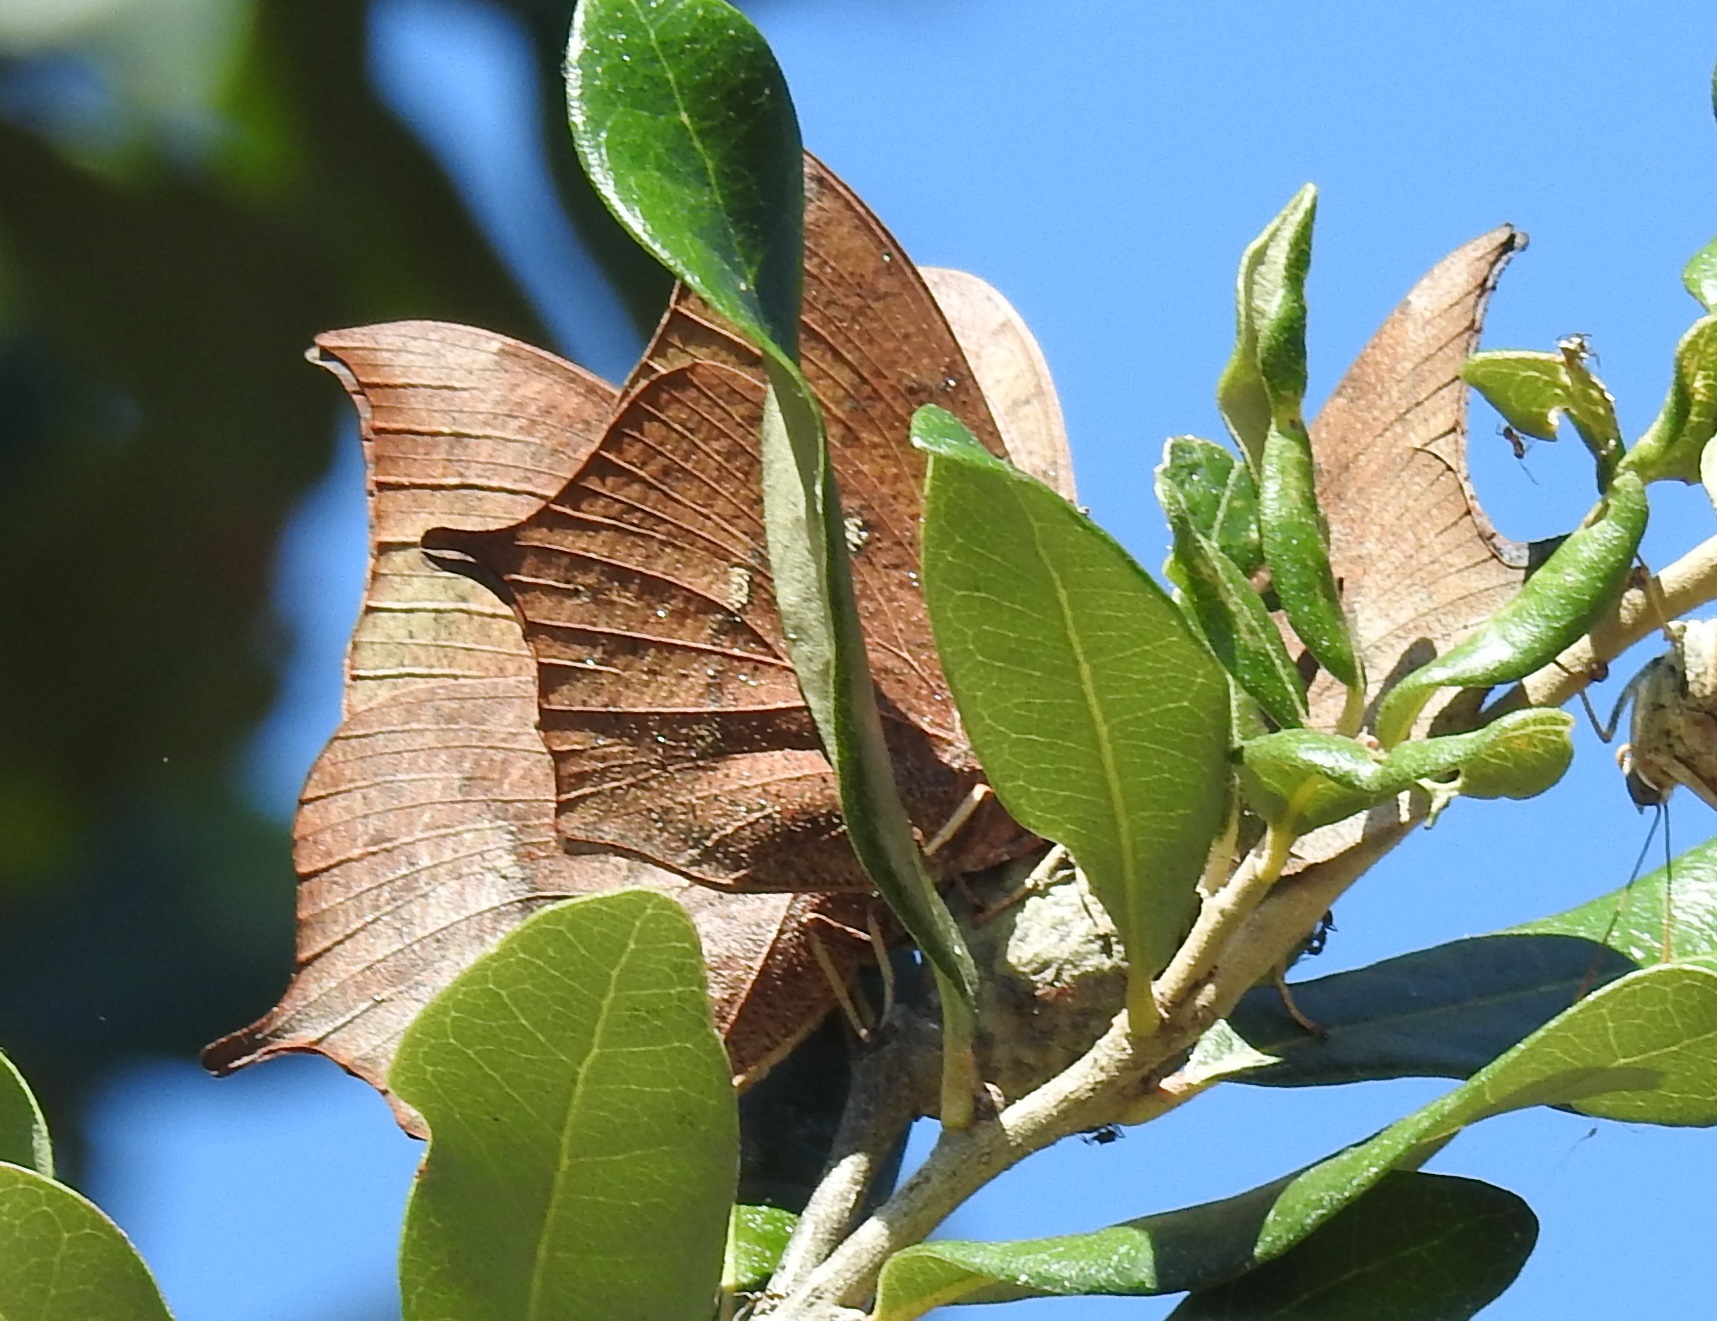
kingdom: Animalia
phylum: Arthropoda
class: Insecta
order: Lepidoptera
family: Nymphalidae
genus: Anaea
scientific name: Anaea andria
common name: Goatweed leafwing
